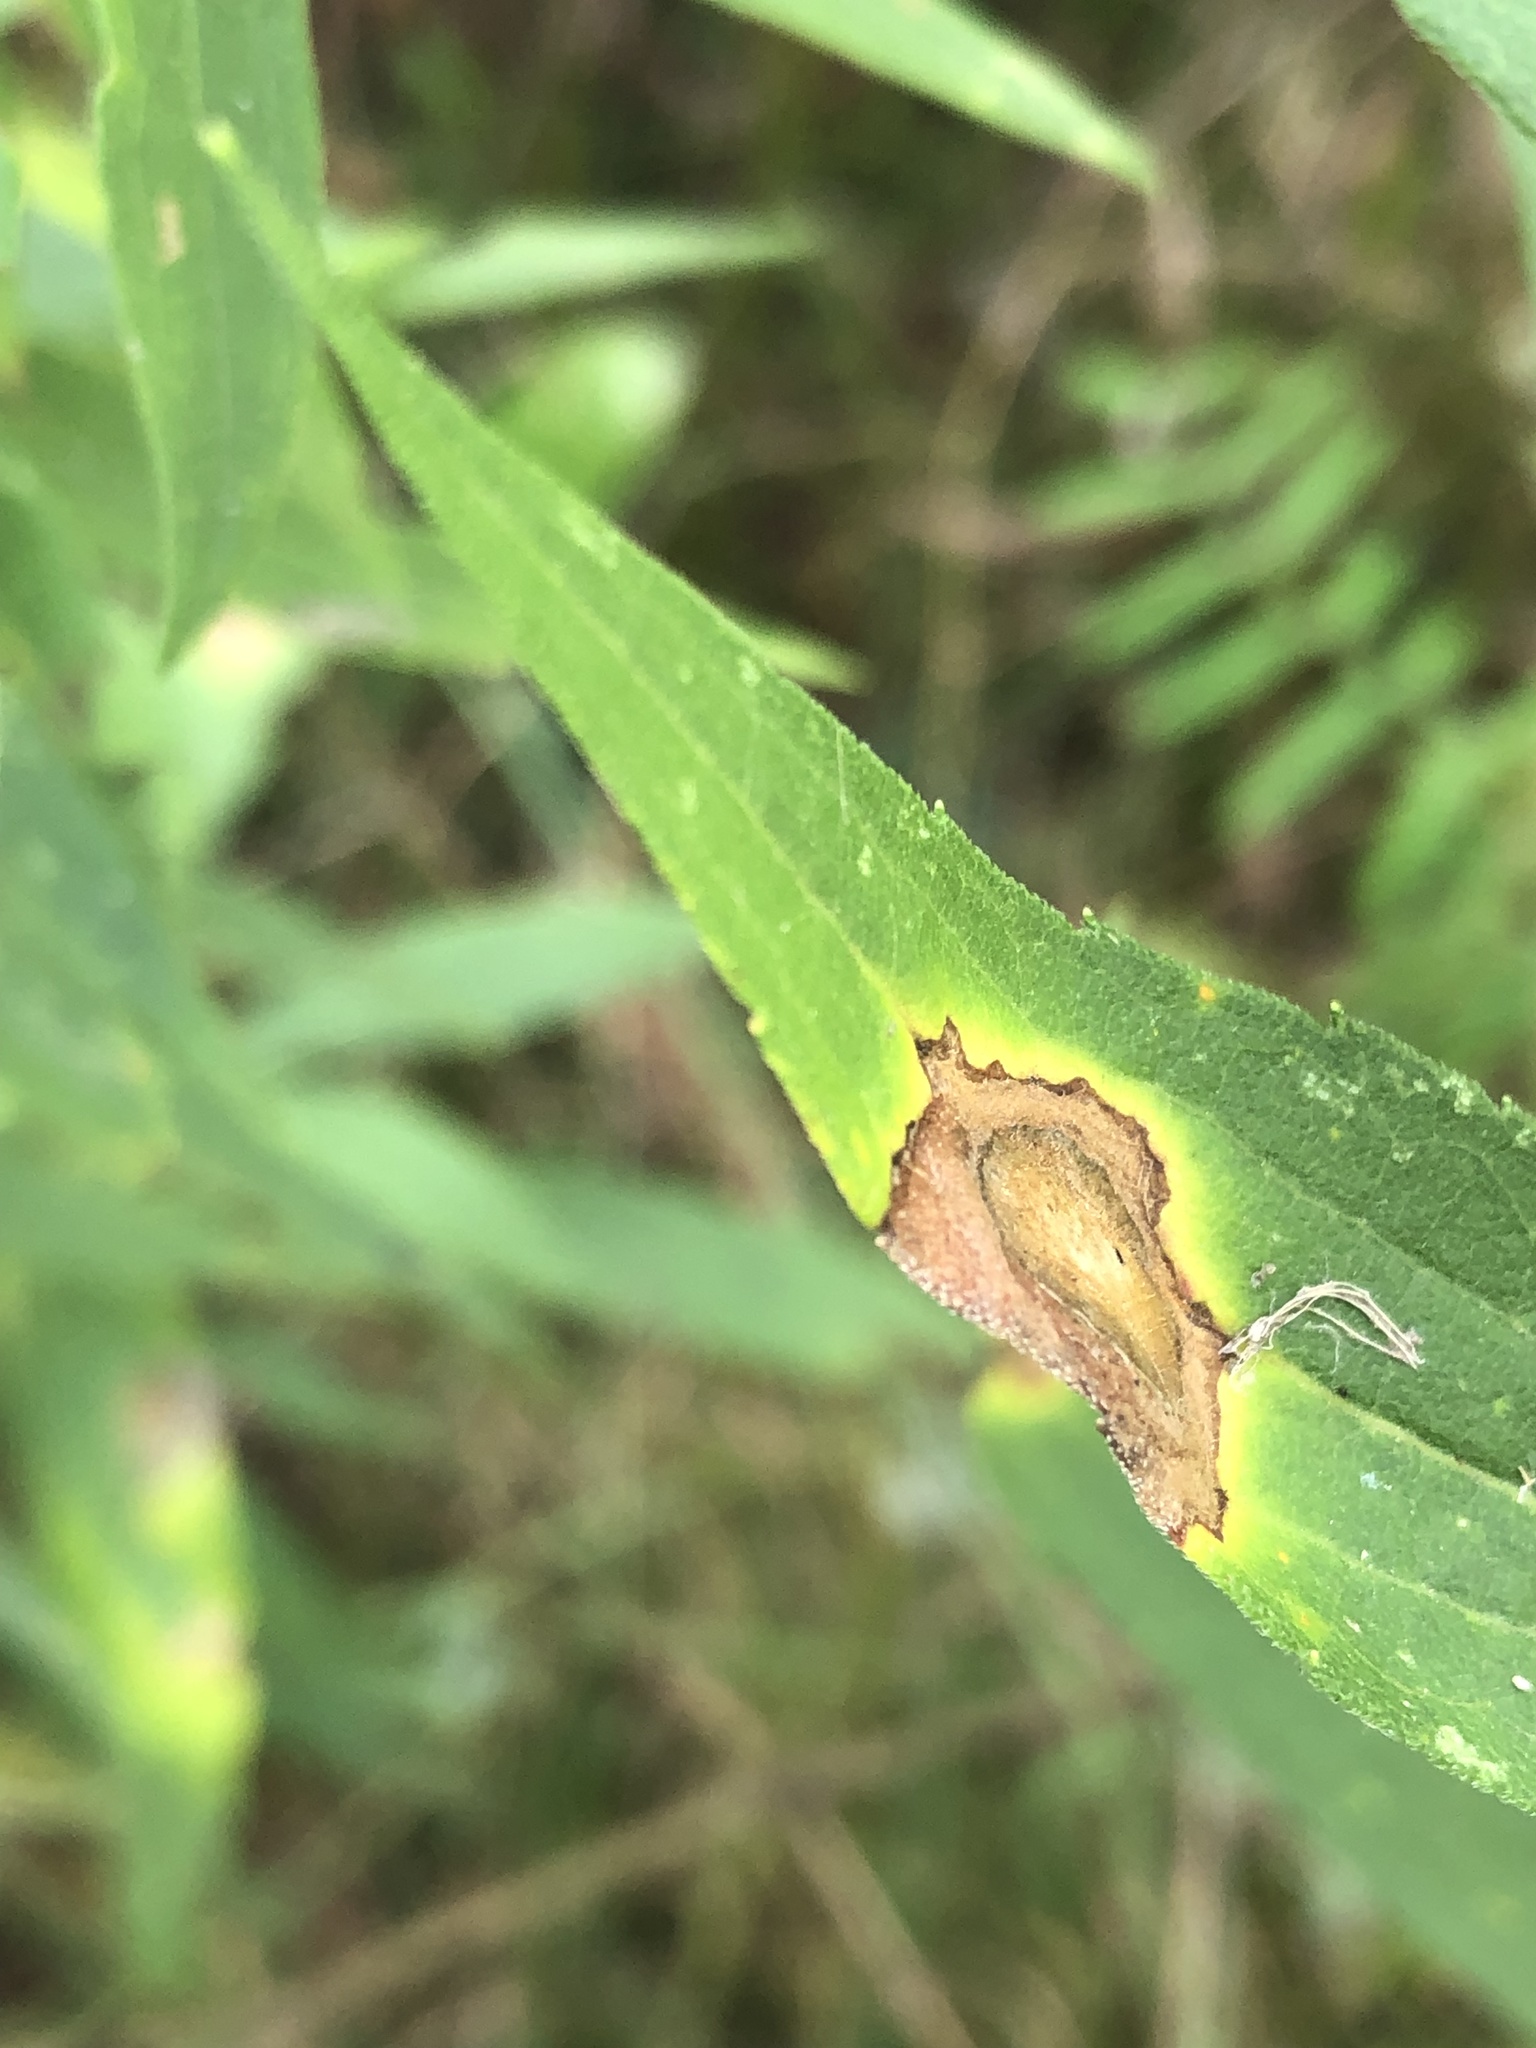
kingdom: Animalia
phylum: Arthropoda
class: Insecta
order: Diptera
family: Cecidomyiidae
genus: Asteromyia
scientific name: Asteromyia carbonifera
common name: Carbonifera goldenrod gall midge
